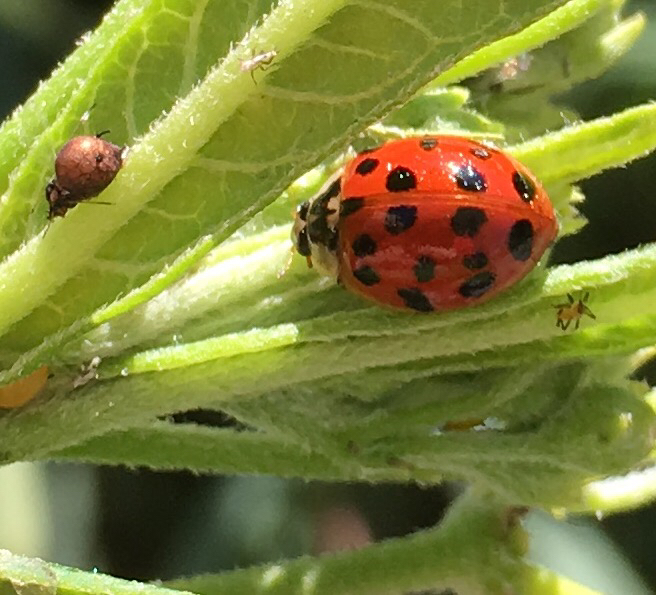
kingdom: Animalia
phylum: Arthropoda
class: Insecta
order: Coleoptera
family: Coccinellidae
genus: Harmonia
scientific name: Harmonia axyridis
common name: Harlequin ladybird
